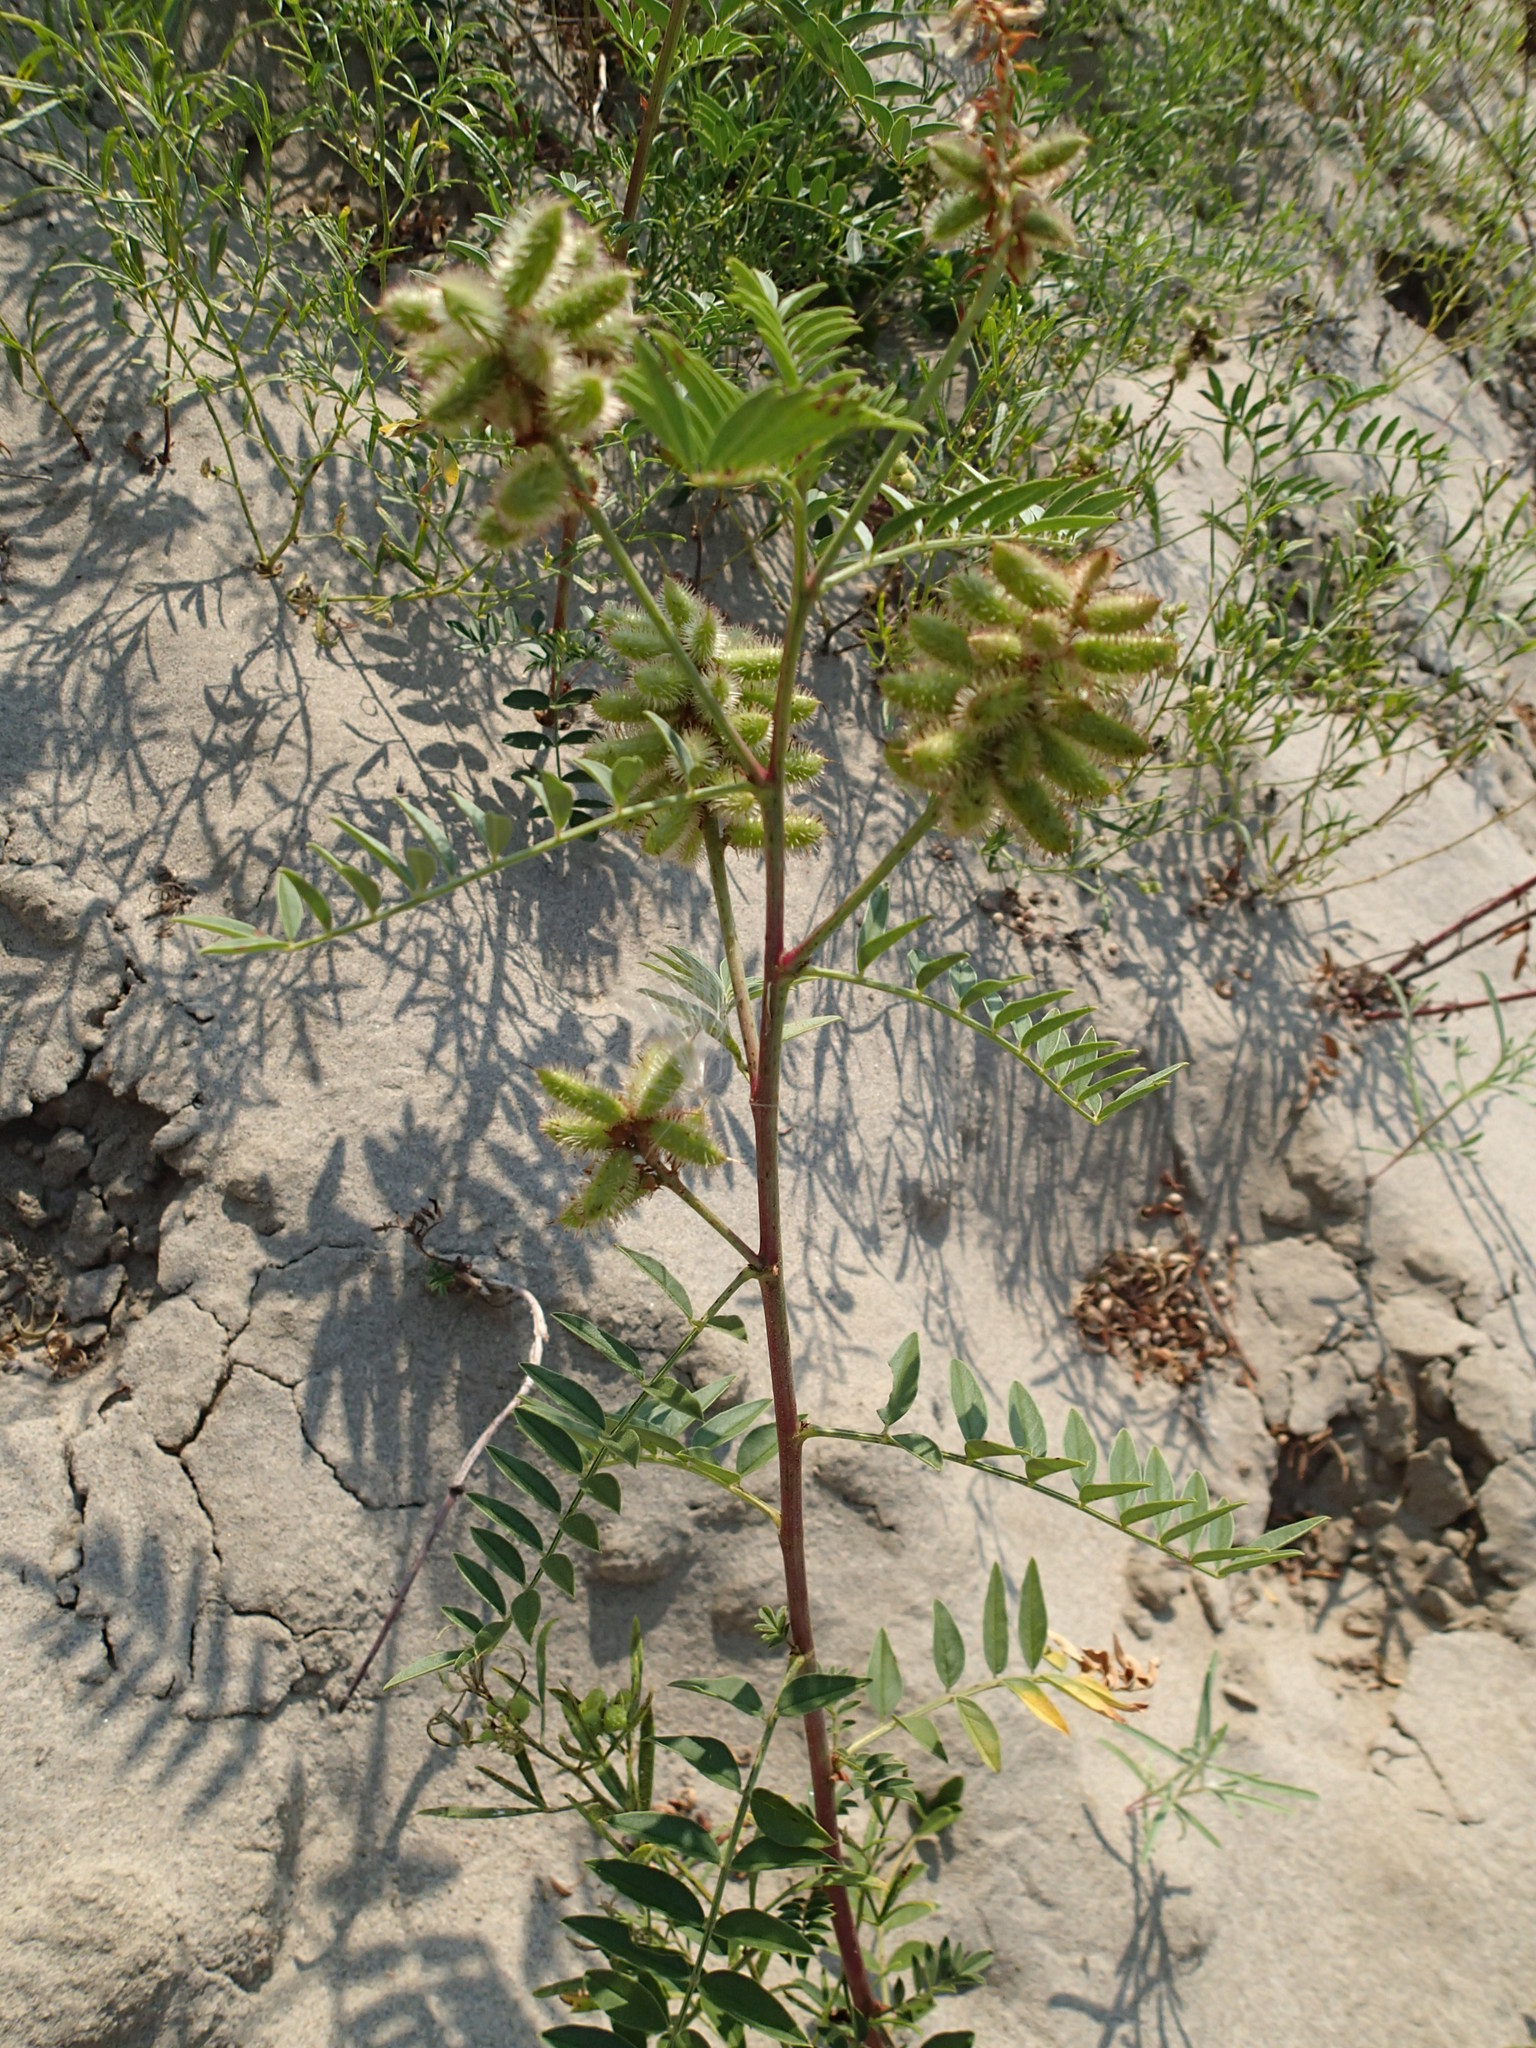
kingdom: Plantae
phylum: Tracheophyta
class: Magnoliopsida
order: Fabales
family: Fabaceae
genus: Glycyrrhiza
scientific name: Glycyrrhiza lepidota
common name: American liquorice
